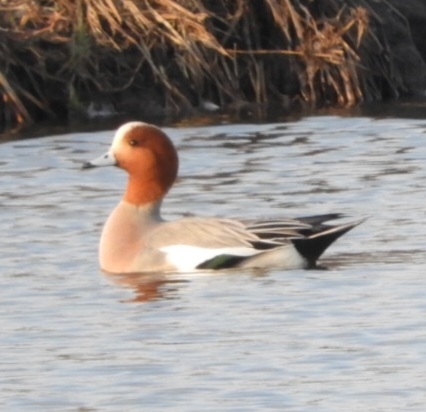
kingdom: Animalia
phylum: Chordata
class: Aves
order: Anseriformes
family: Anatidae
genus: Mareca
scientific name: Mareca penelope
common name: Eurasian wigeon
